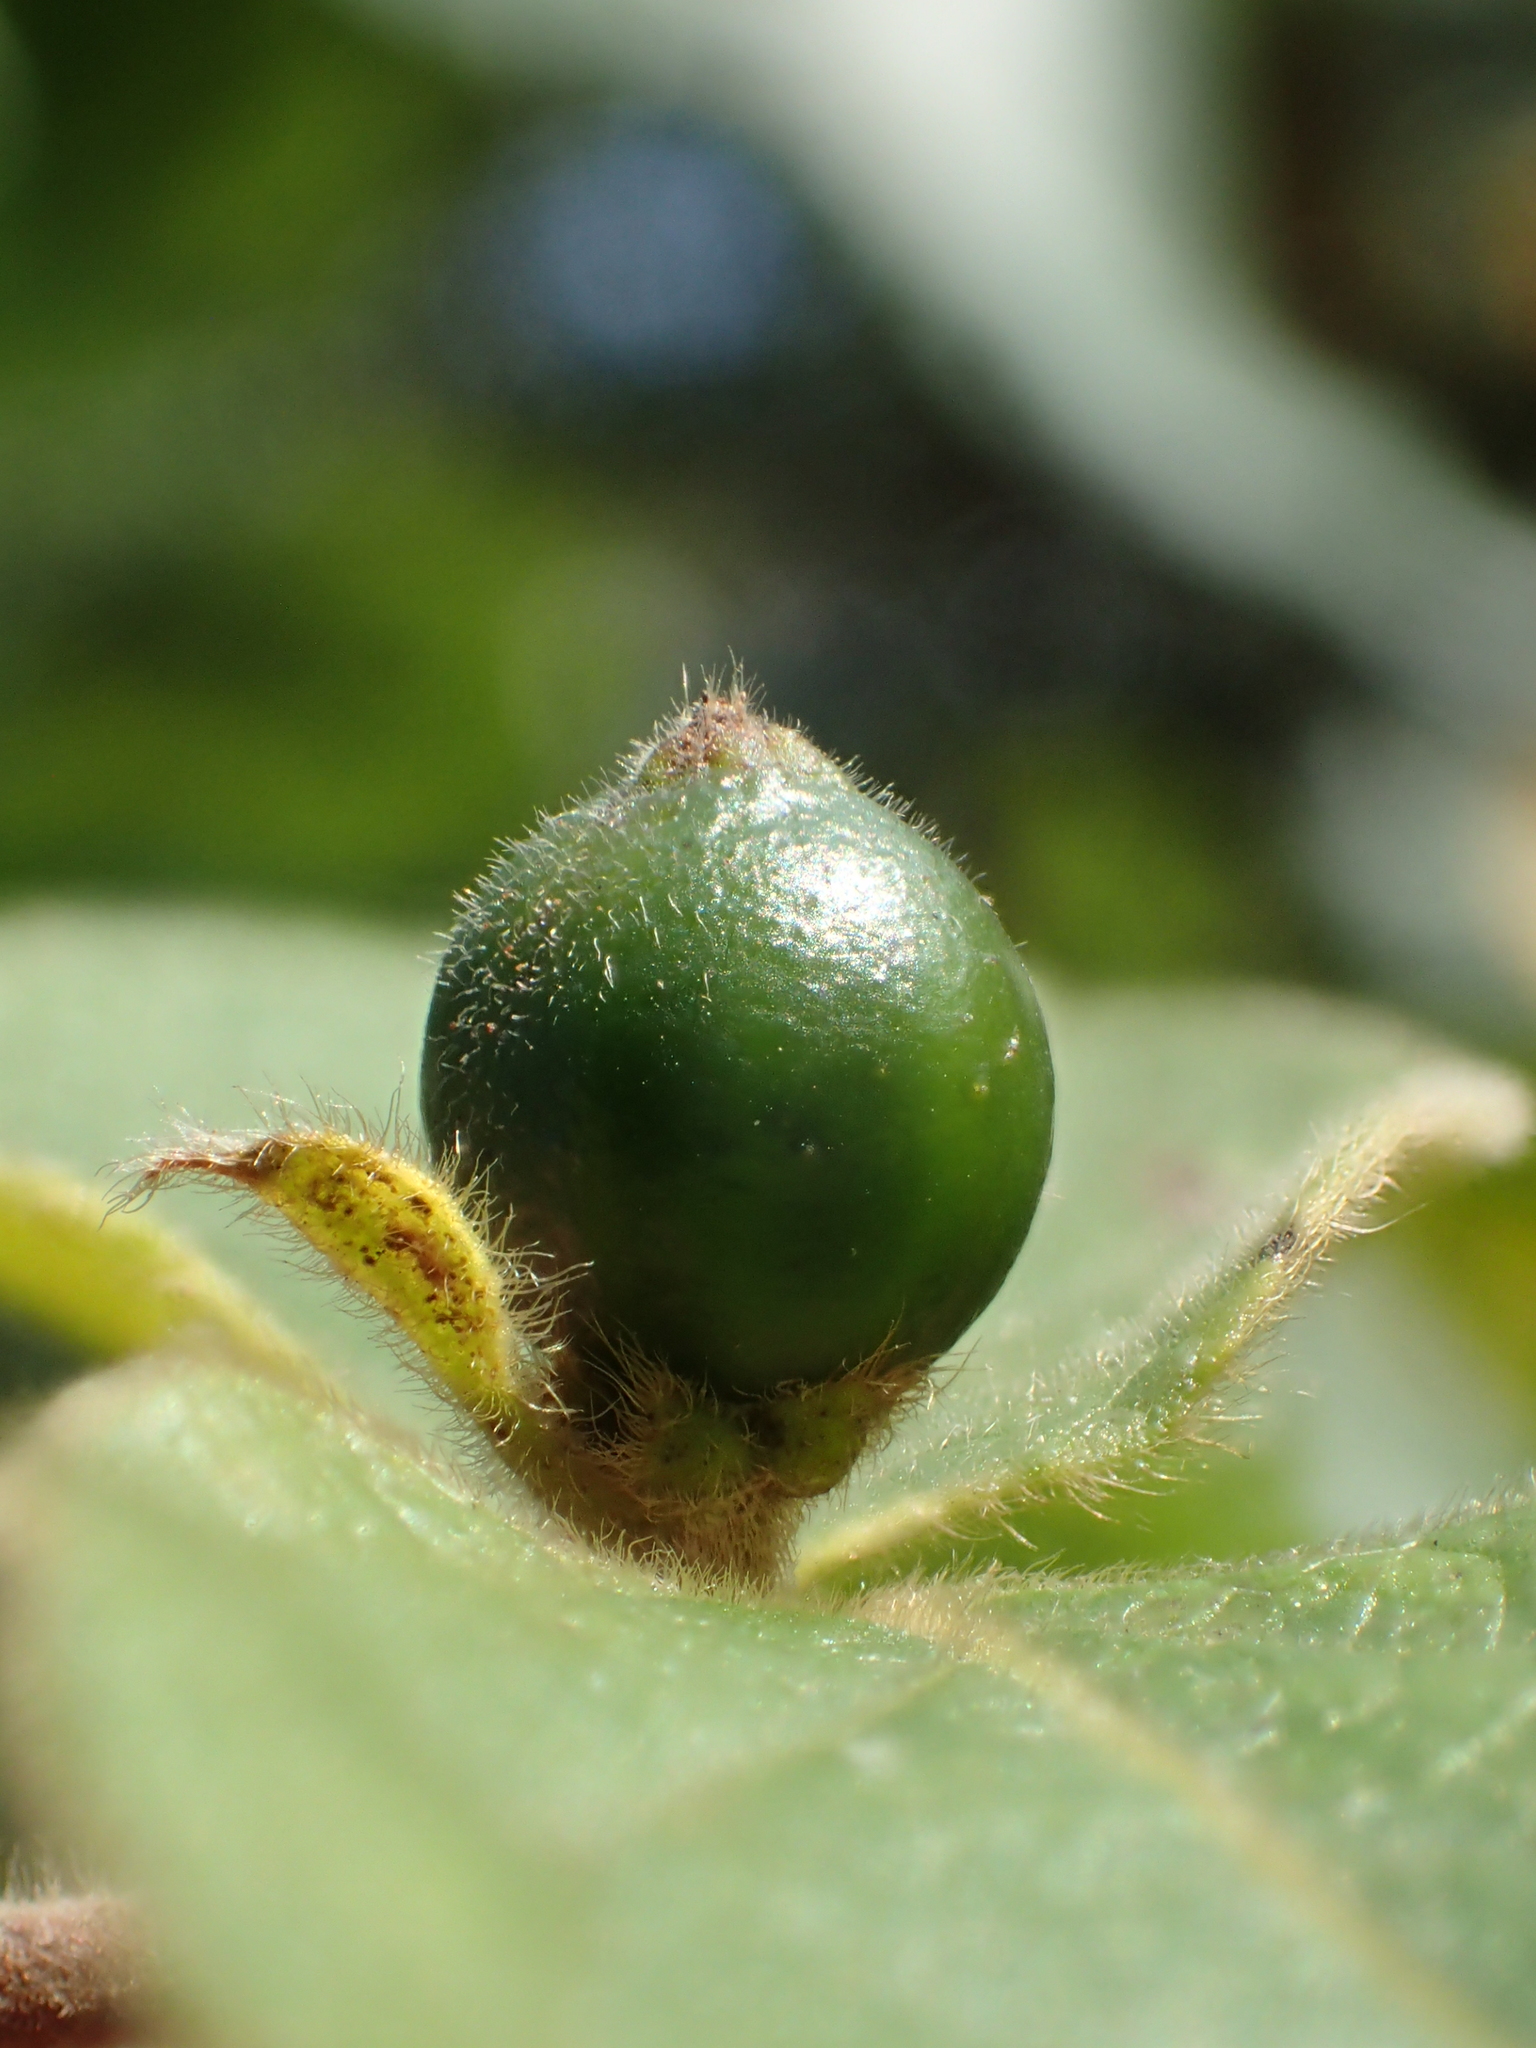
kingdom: Plantae
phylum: Tracheophyta
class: Magnoliopsida
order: Dipsacales
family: Caprifoliaceae
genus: Lonicera
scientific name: Lonicera japonica
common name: Japanese honeysuckle
